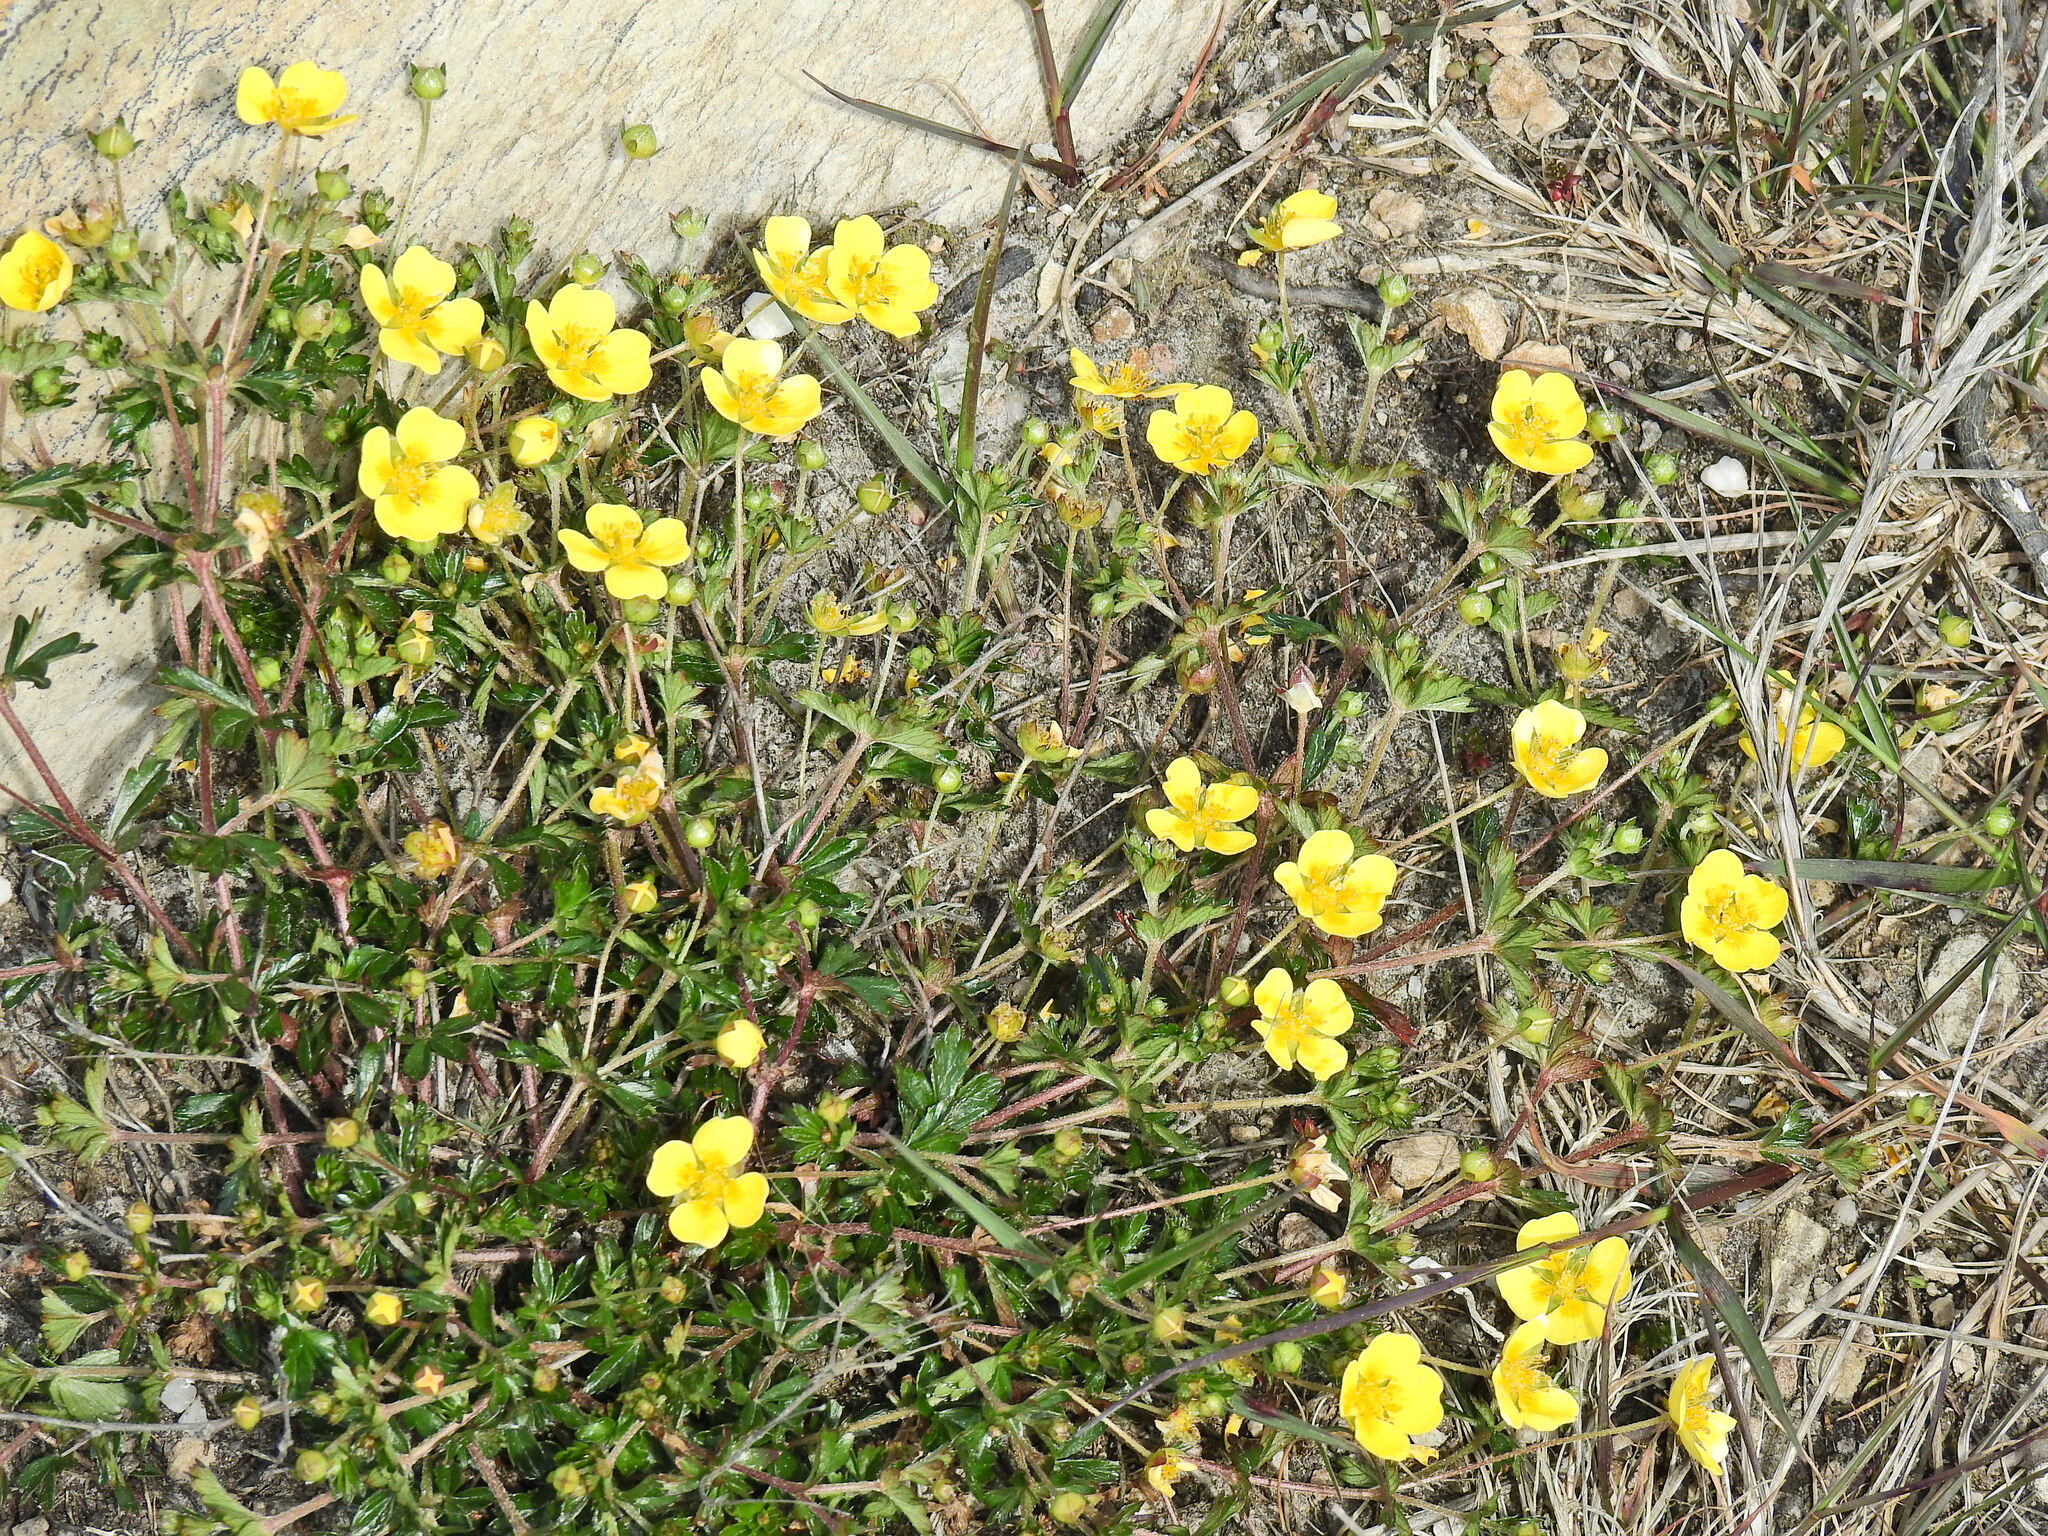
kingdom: Plantae
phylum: Tracheophyta
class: Magnoliopsida
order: Rosales
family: Rosaceae
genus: Potentilla
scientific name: Potentilla erecta
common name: Tormentil
